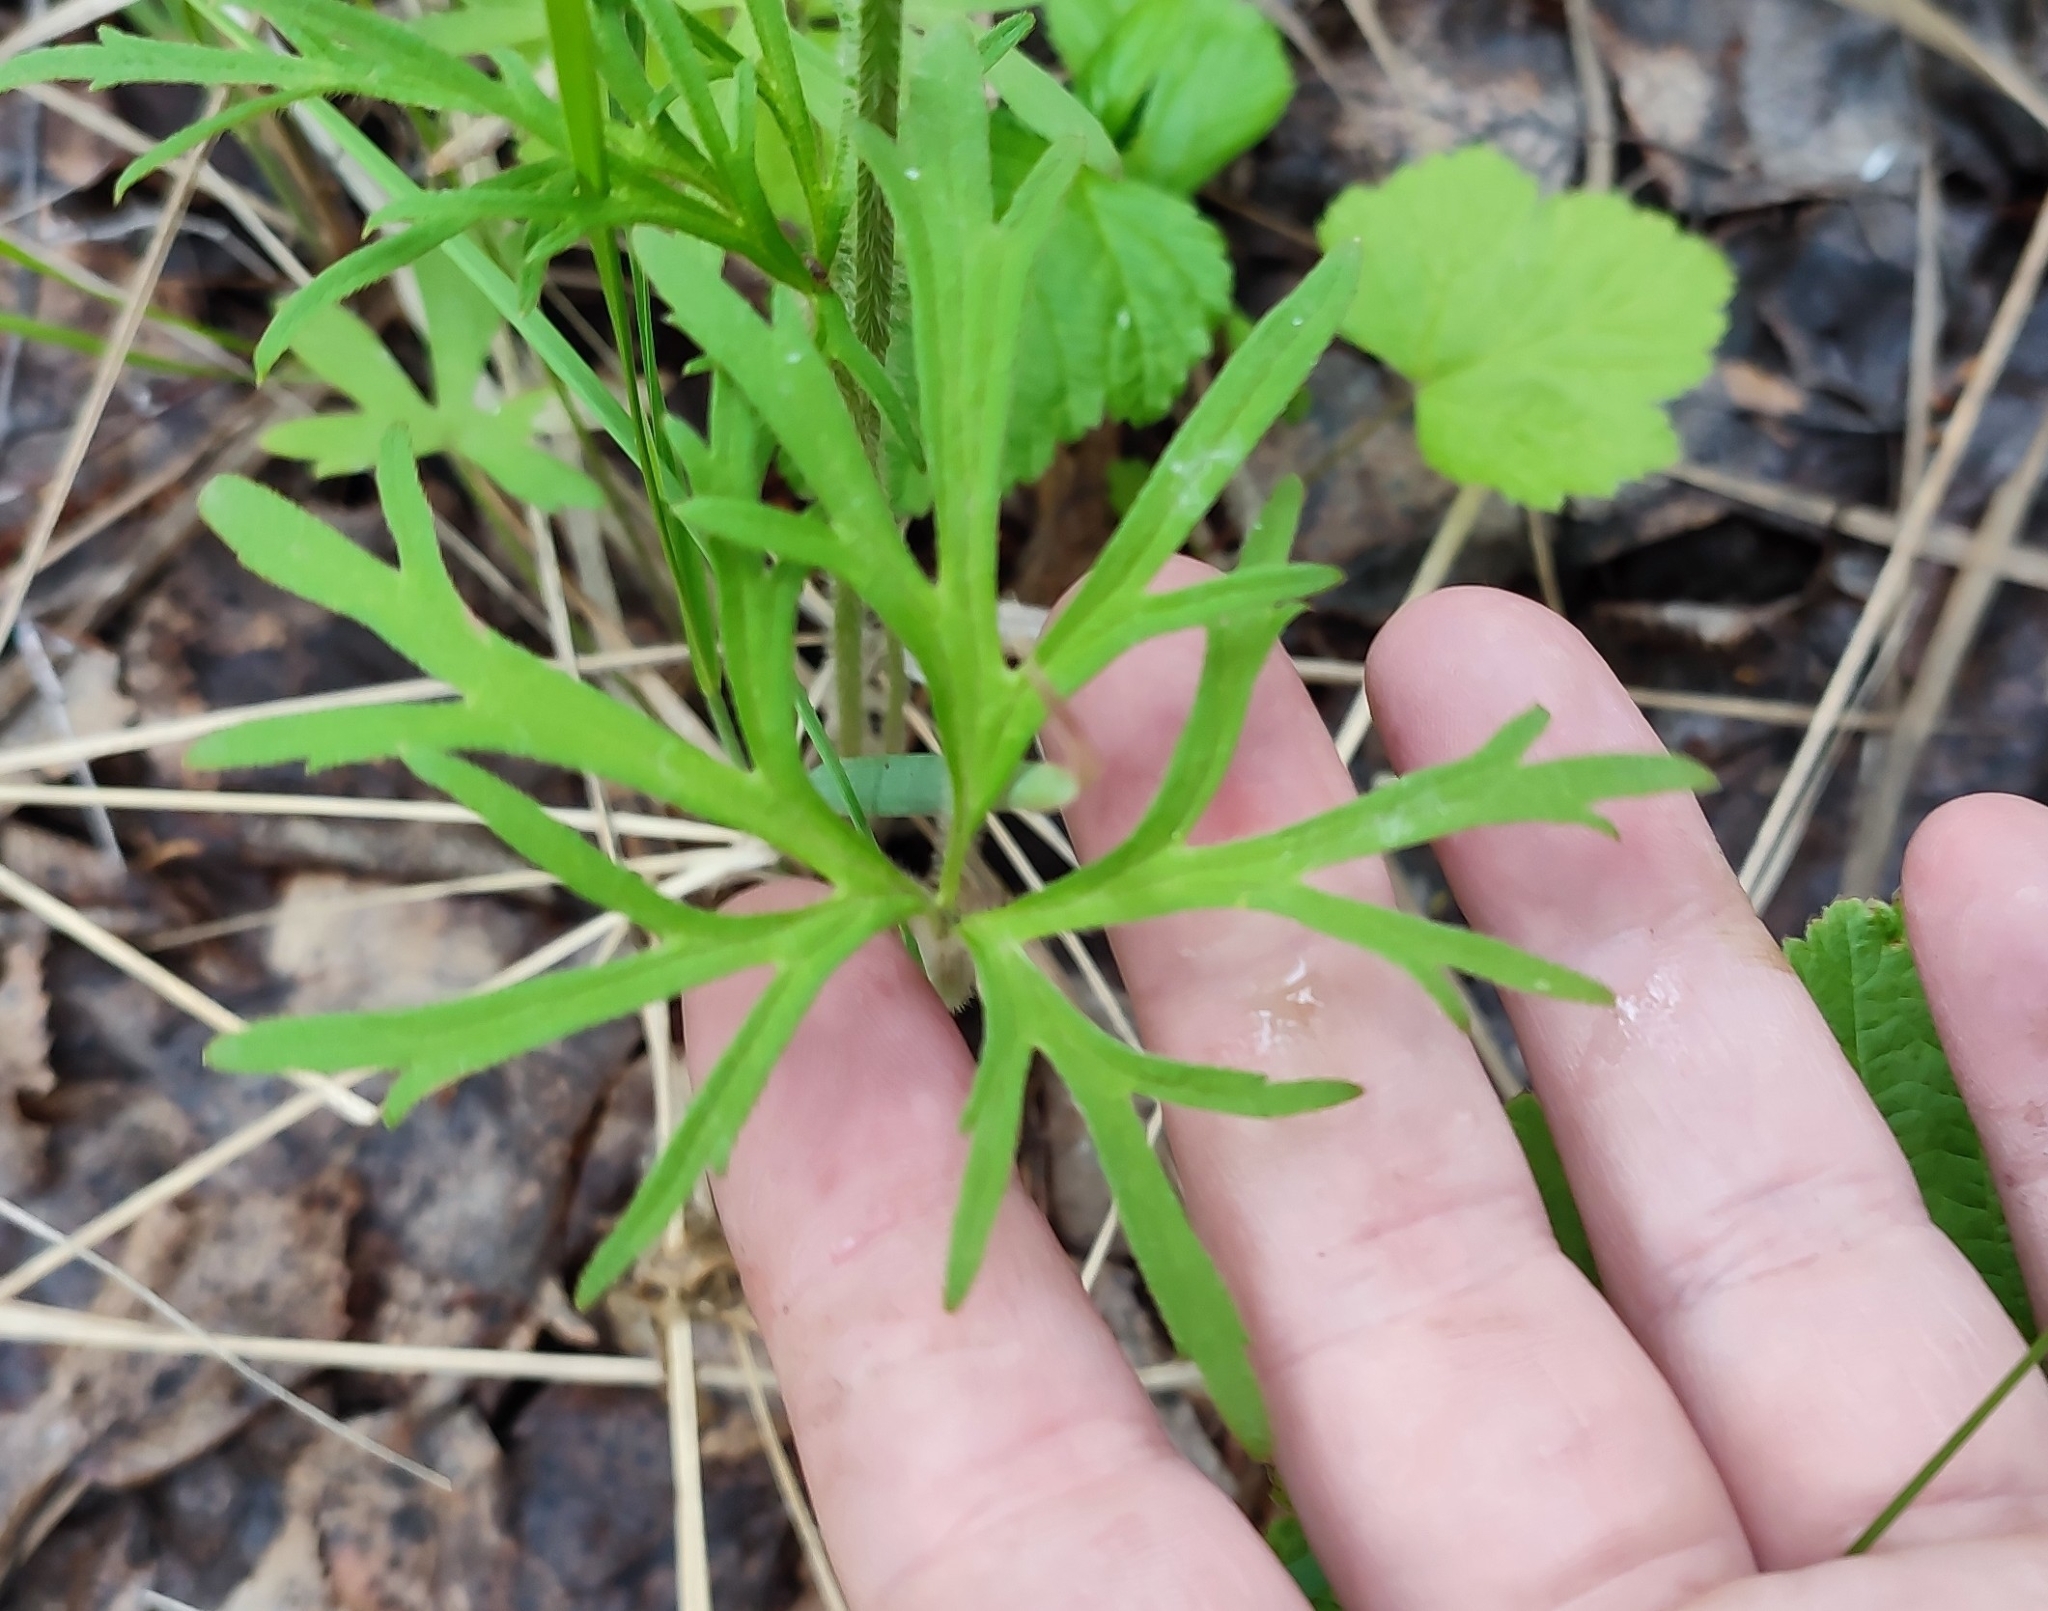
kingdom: Plantae
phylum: Tracheophyta
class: Magnoliopsida
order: Ranunculales
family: Ranunculaceae
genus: Ranunculus
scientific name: Ranunculus polyanthemos
